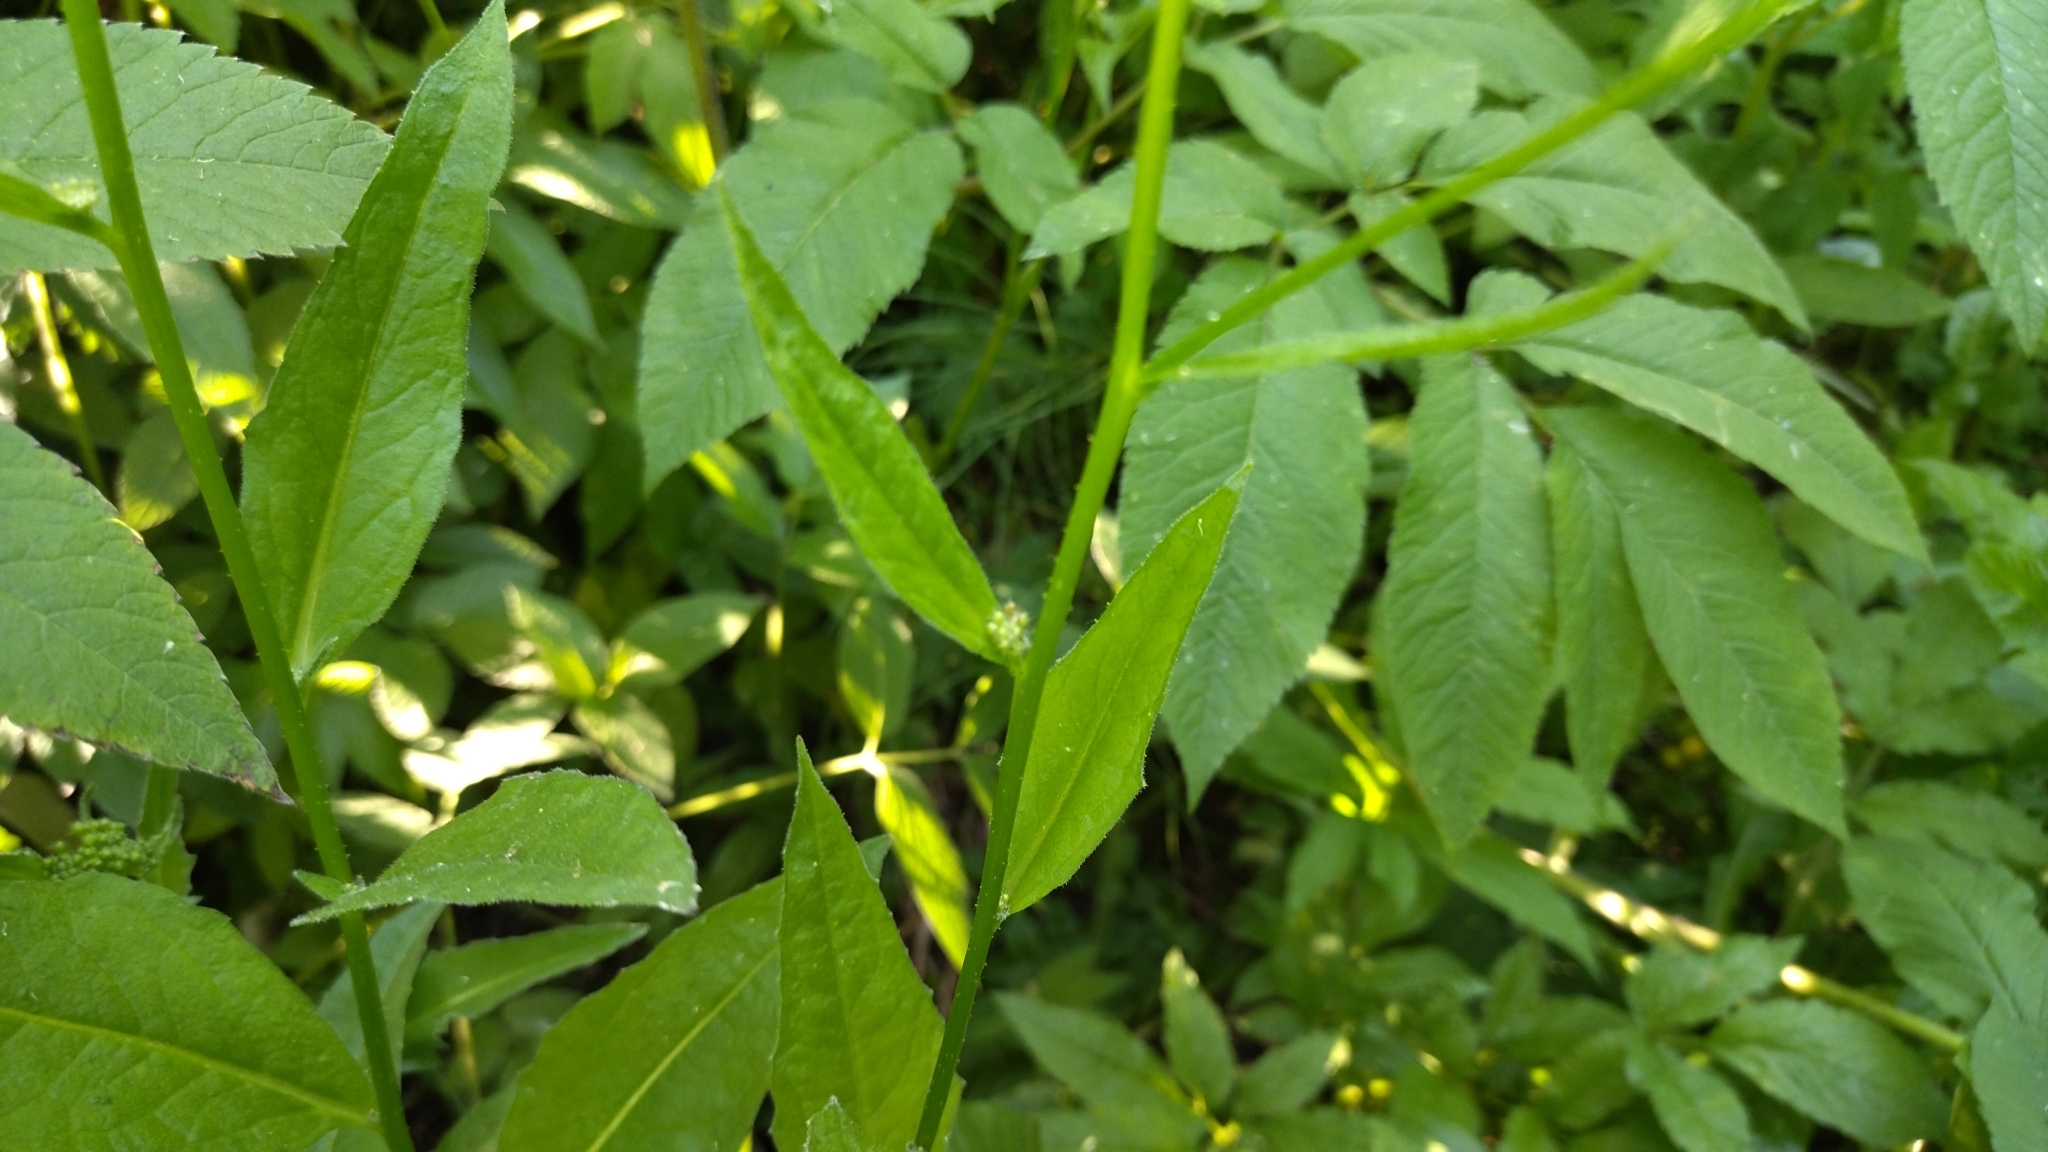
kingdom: Plantae
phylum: Tracheophyta
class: Magnoliopsida
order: Brassicales
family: Brassicaceae
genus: Bunias
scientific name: Bunias orientalis
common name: Warty-cabbage
